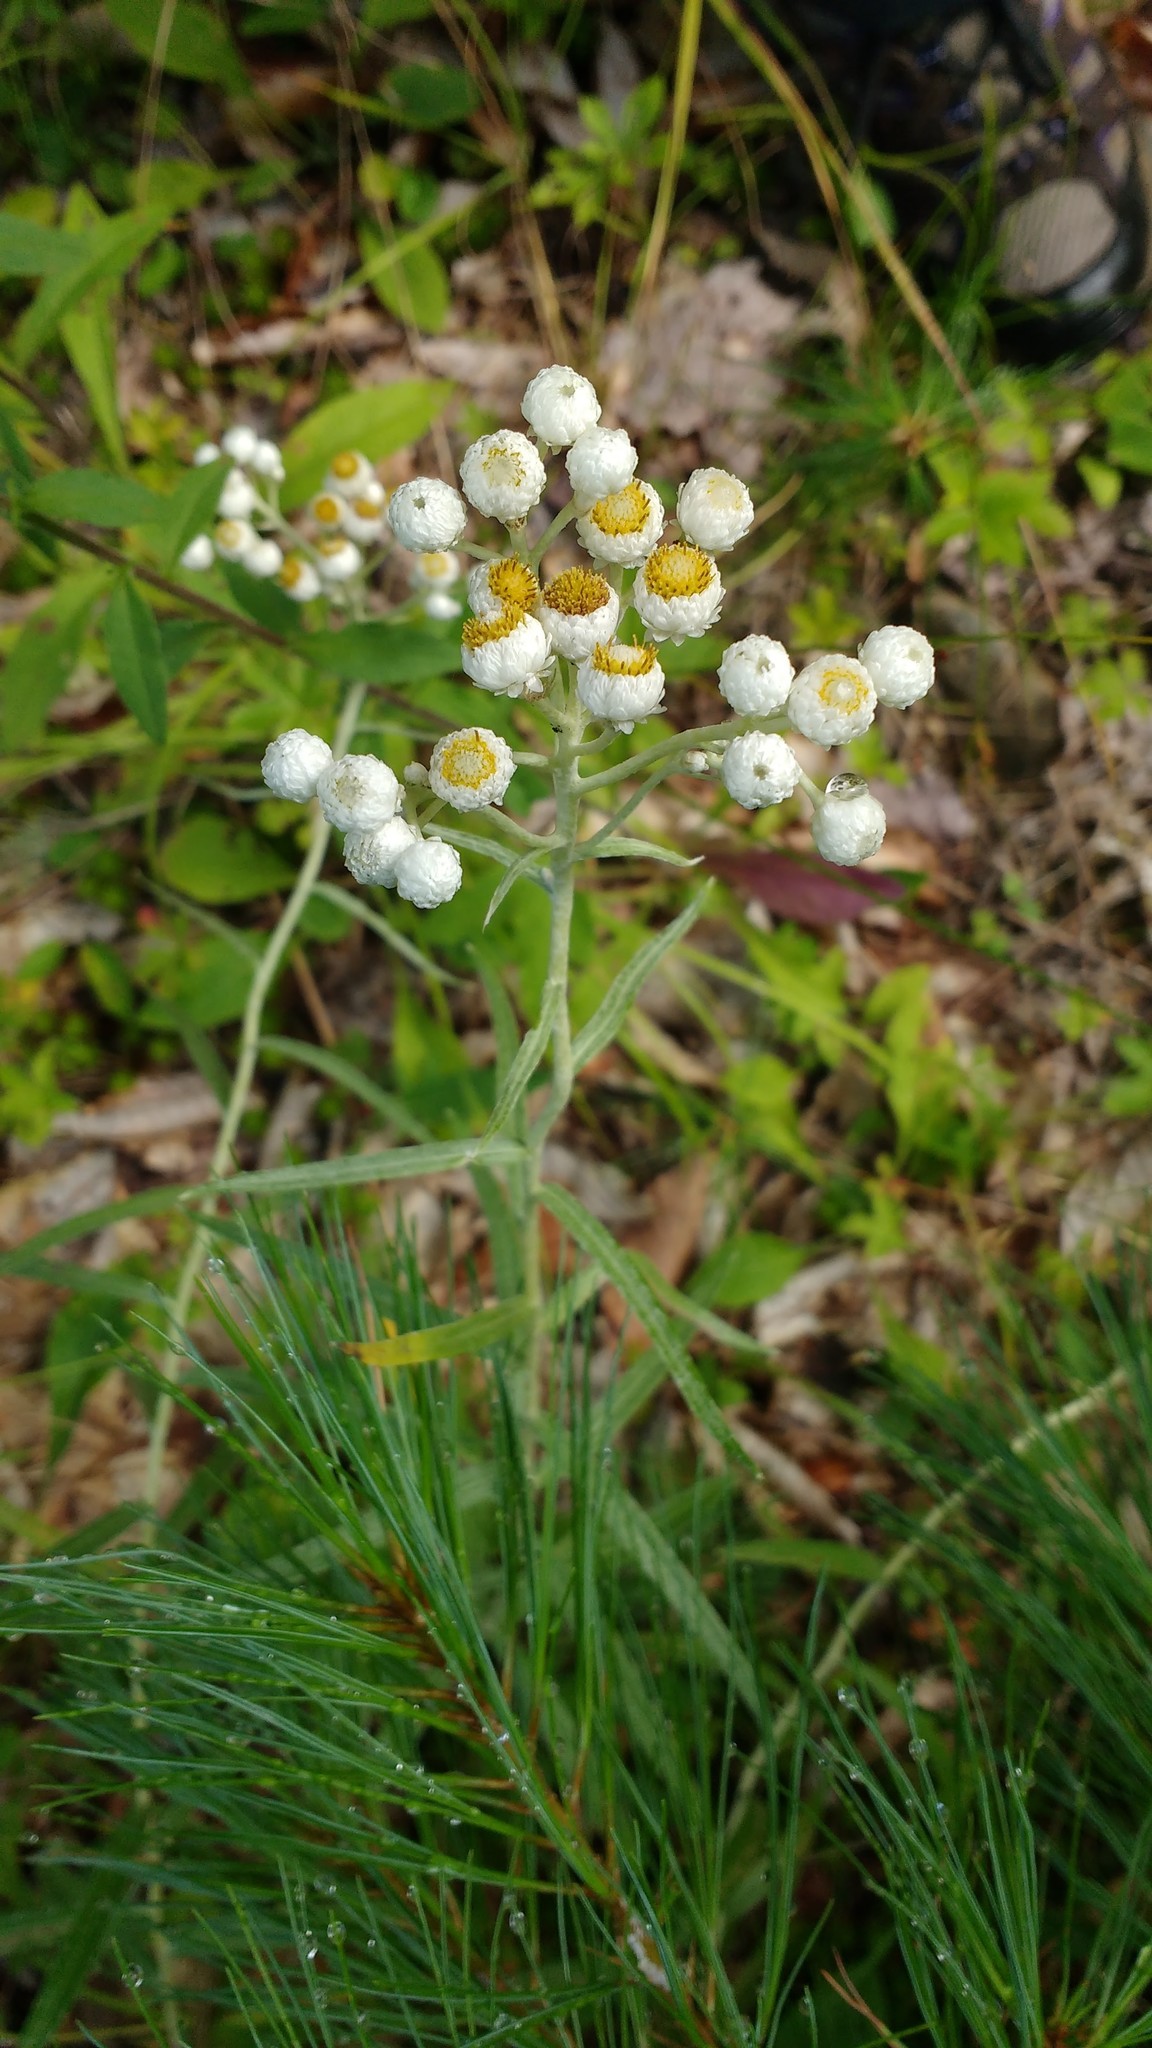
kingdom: Plantae
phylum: Tracheophyta
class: Magnoliopsida
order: Asterales
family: Asteraceae
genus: Anaphalis
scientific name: Anaphalis margaritacea
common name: Pearly everlasting
